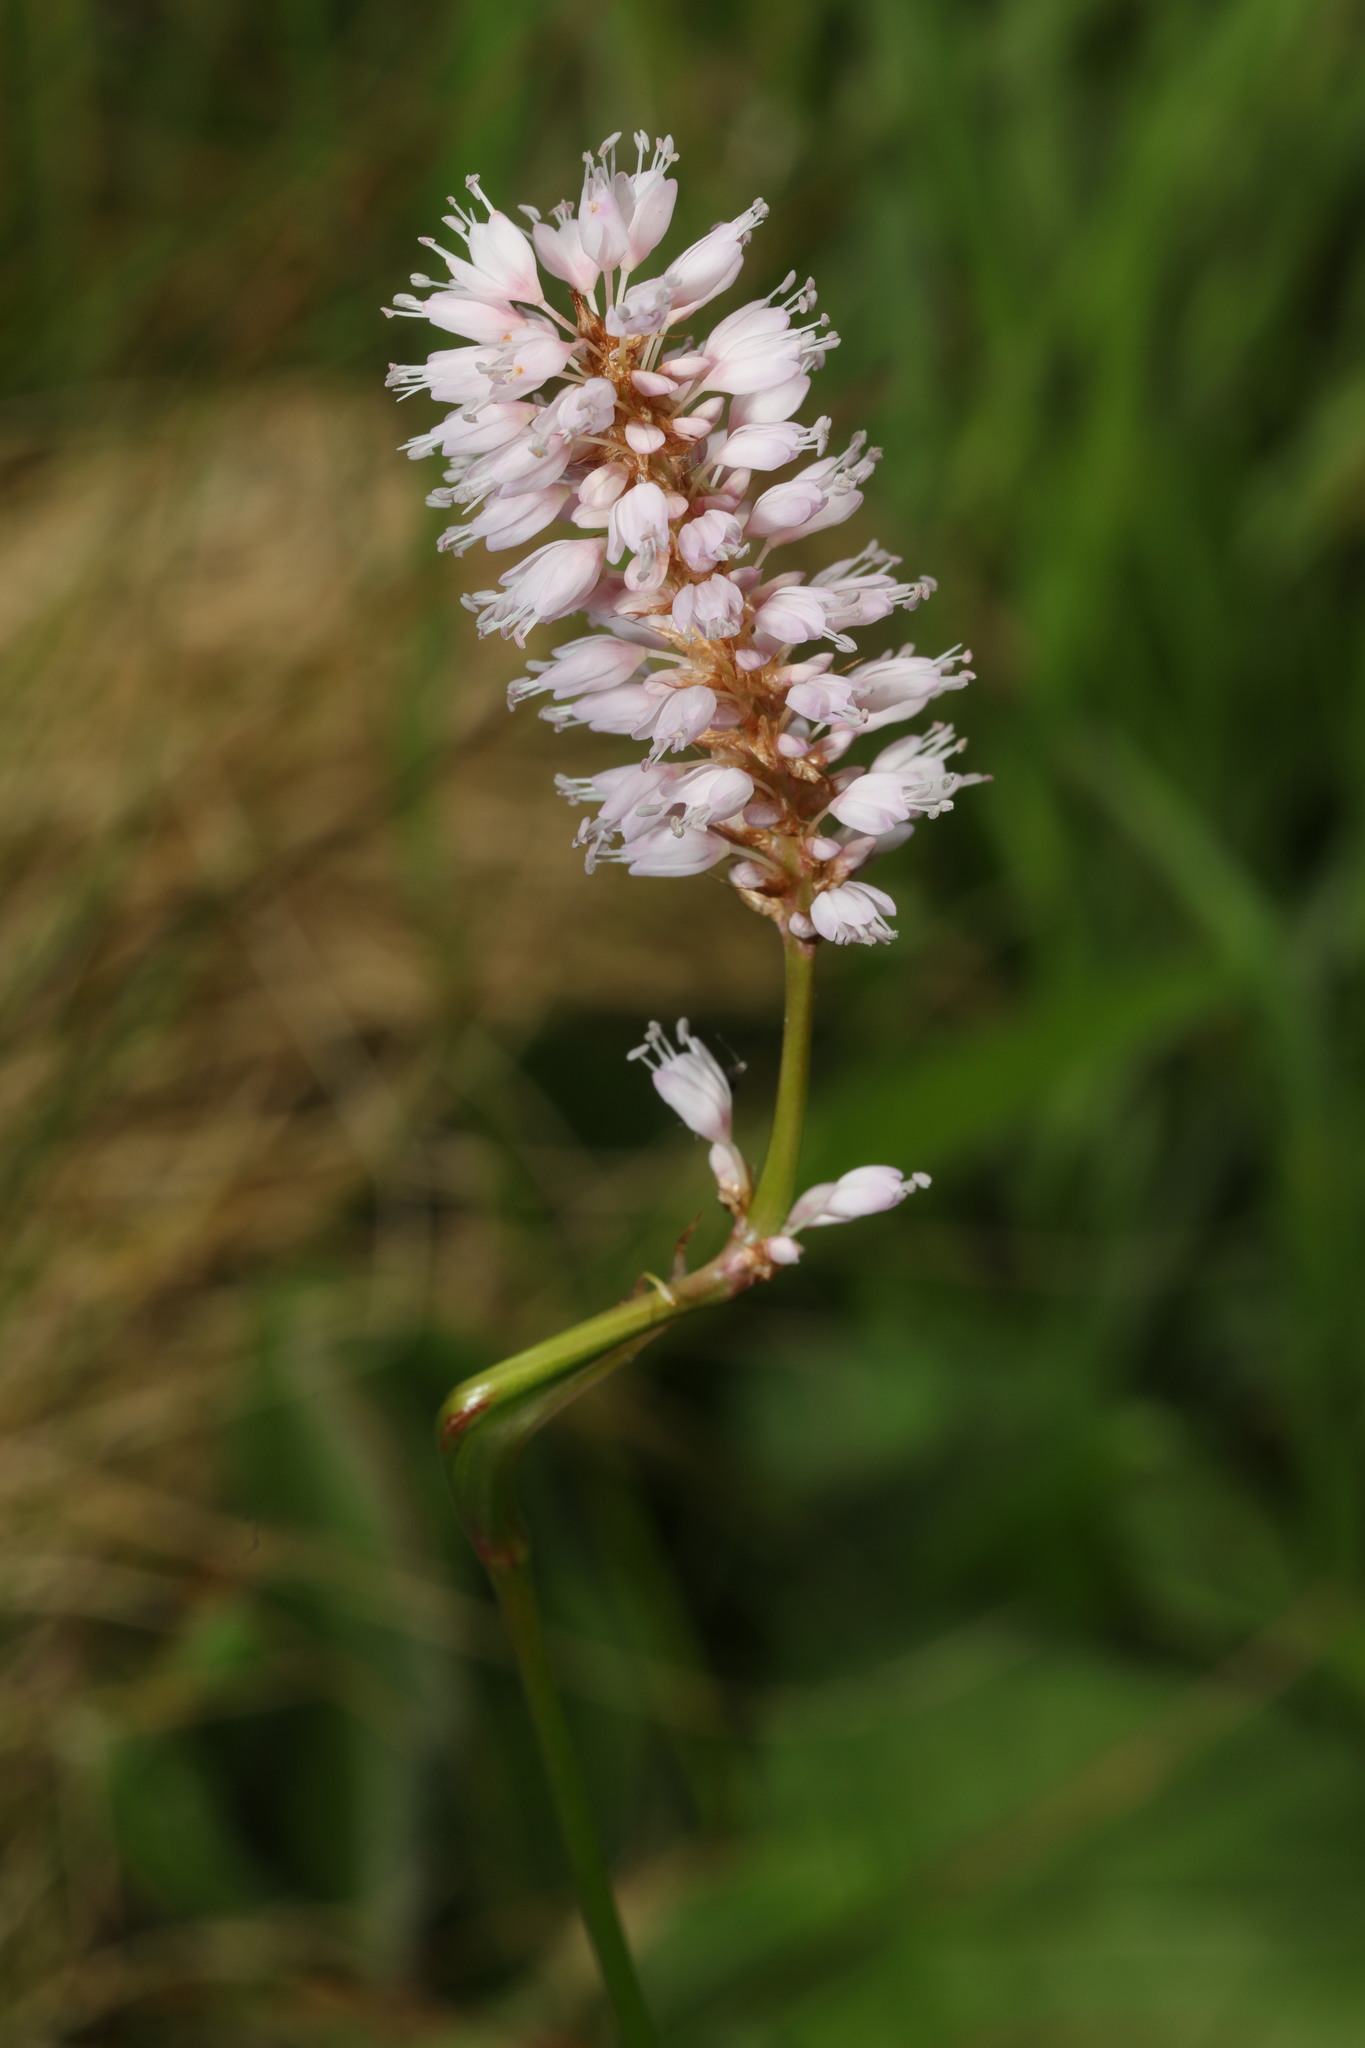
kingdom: Plantae
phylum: Tracheophyta
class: Magnoliopsida
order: Caryophyllales
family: Polygonaceae
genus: Bistorta
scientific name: Bistorta officinalis
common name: Common bistort
